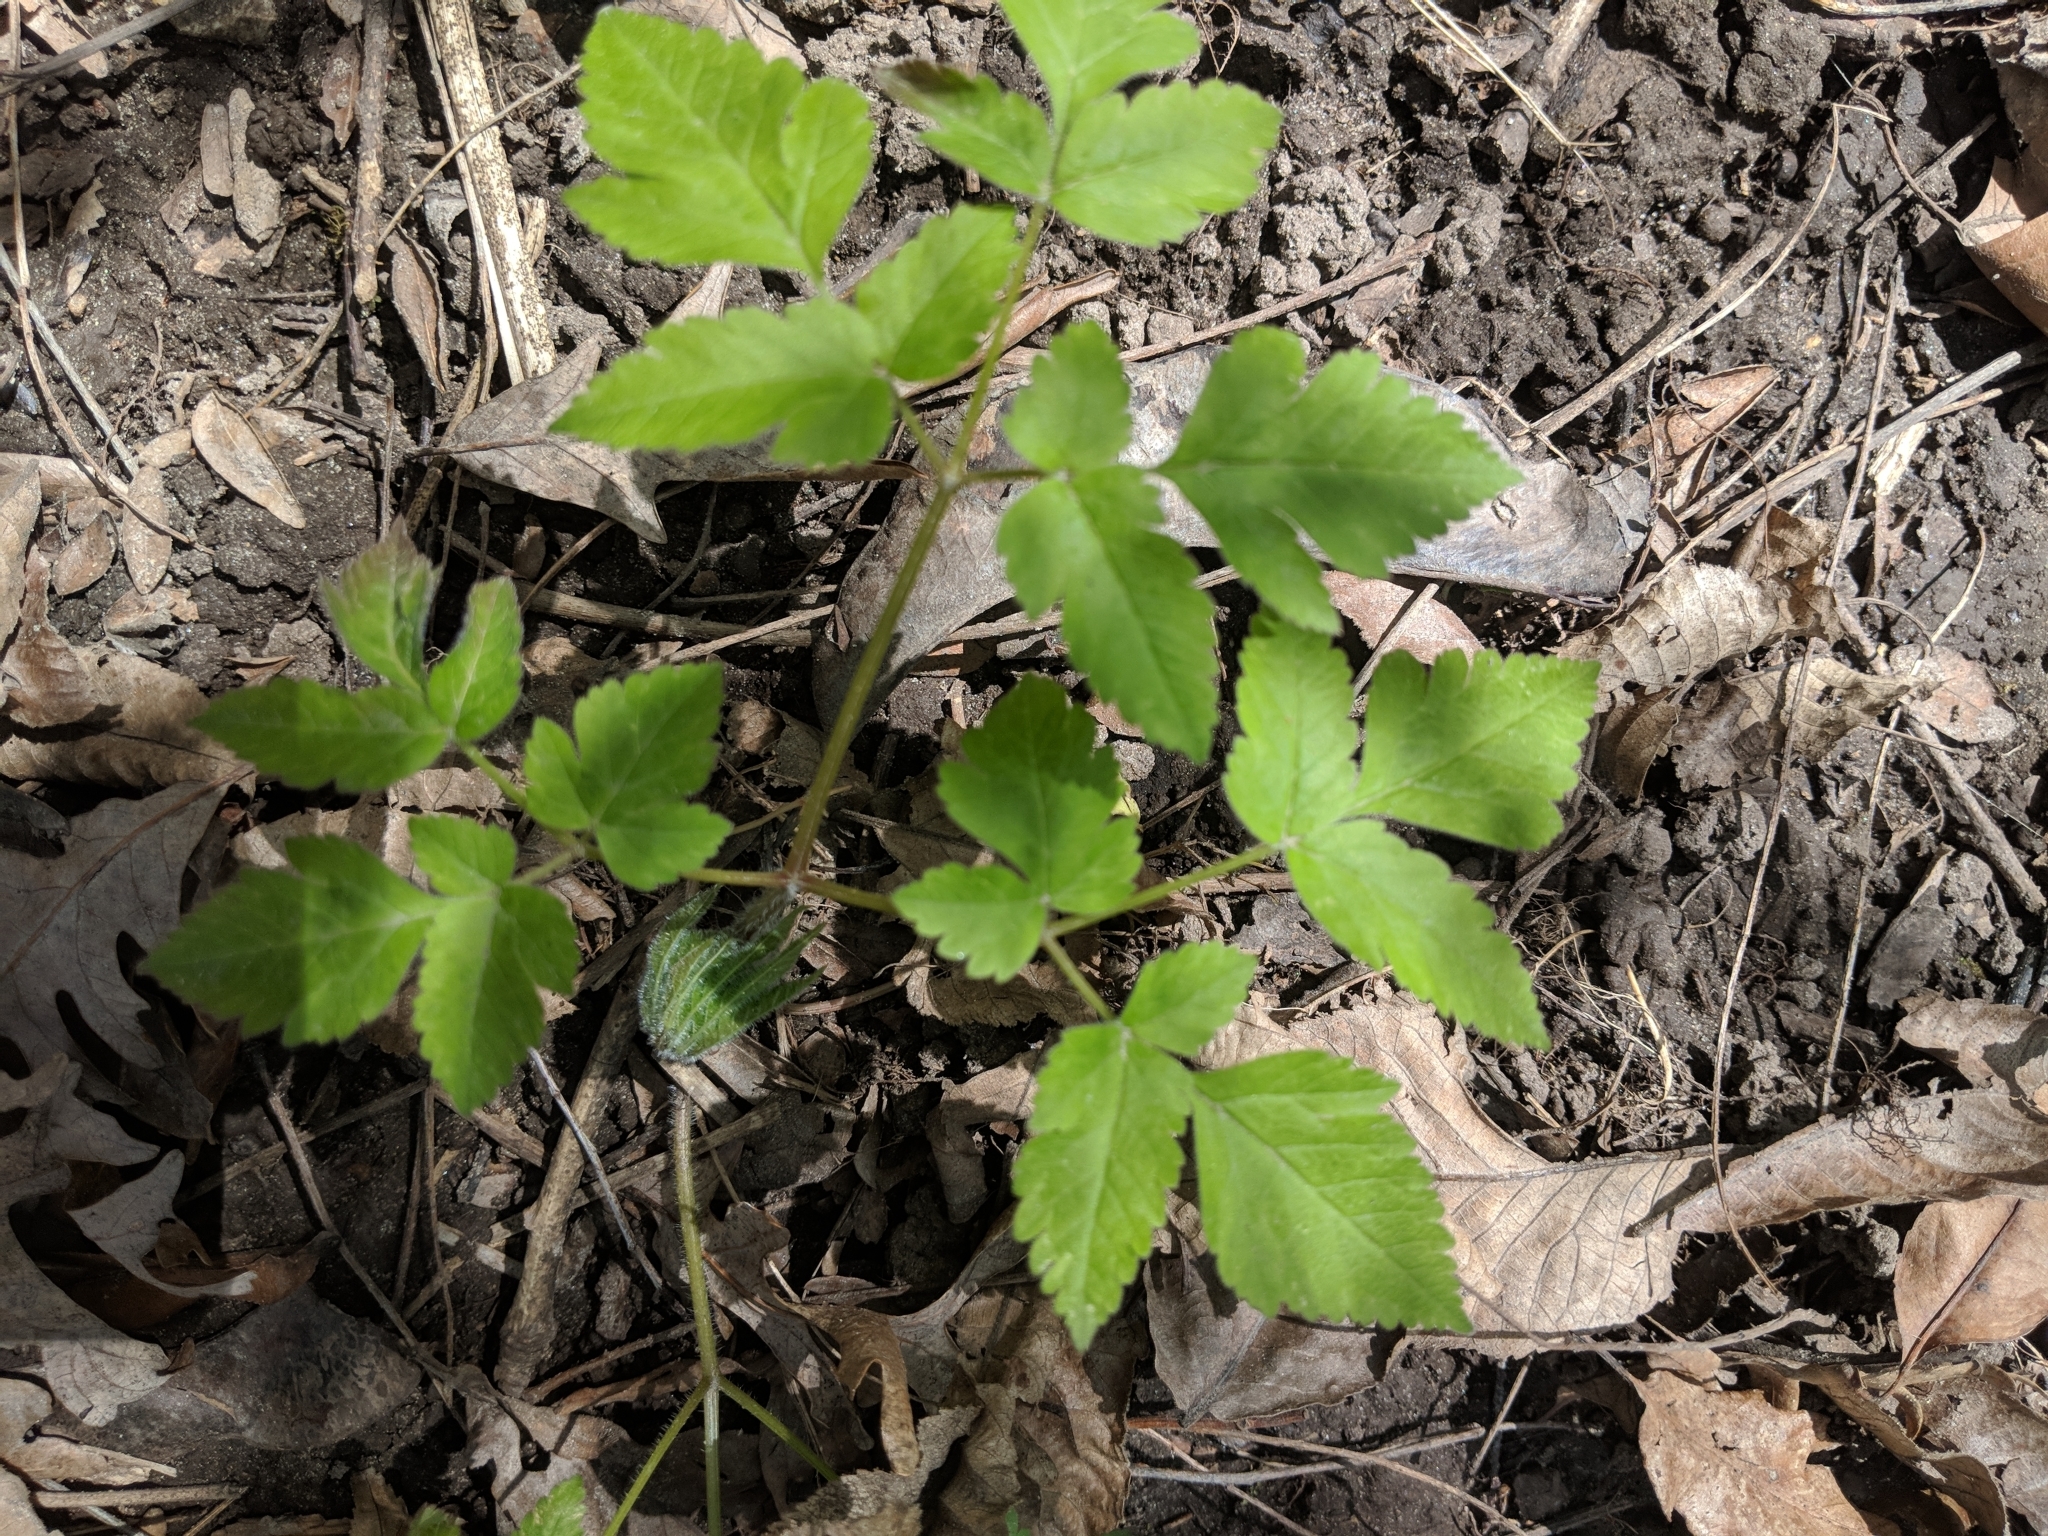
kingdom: Plantae
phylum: Tracheophyta
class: Magnoliopsida
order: Apiales
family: Apiaceae
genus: Osmorhiza
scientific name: Osmorhiza claytonii
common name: Hairy sweet cicely
